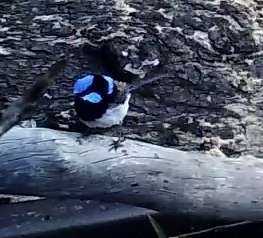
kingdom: Animalia
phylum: Chordata
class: Aves
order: Passeriformes
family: Maluridae
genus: Malurus
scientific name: Malurus cyaneus
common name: Superb fairywren
